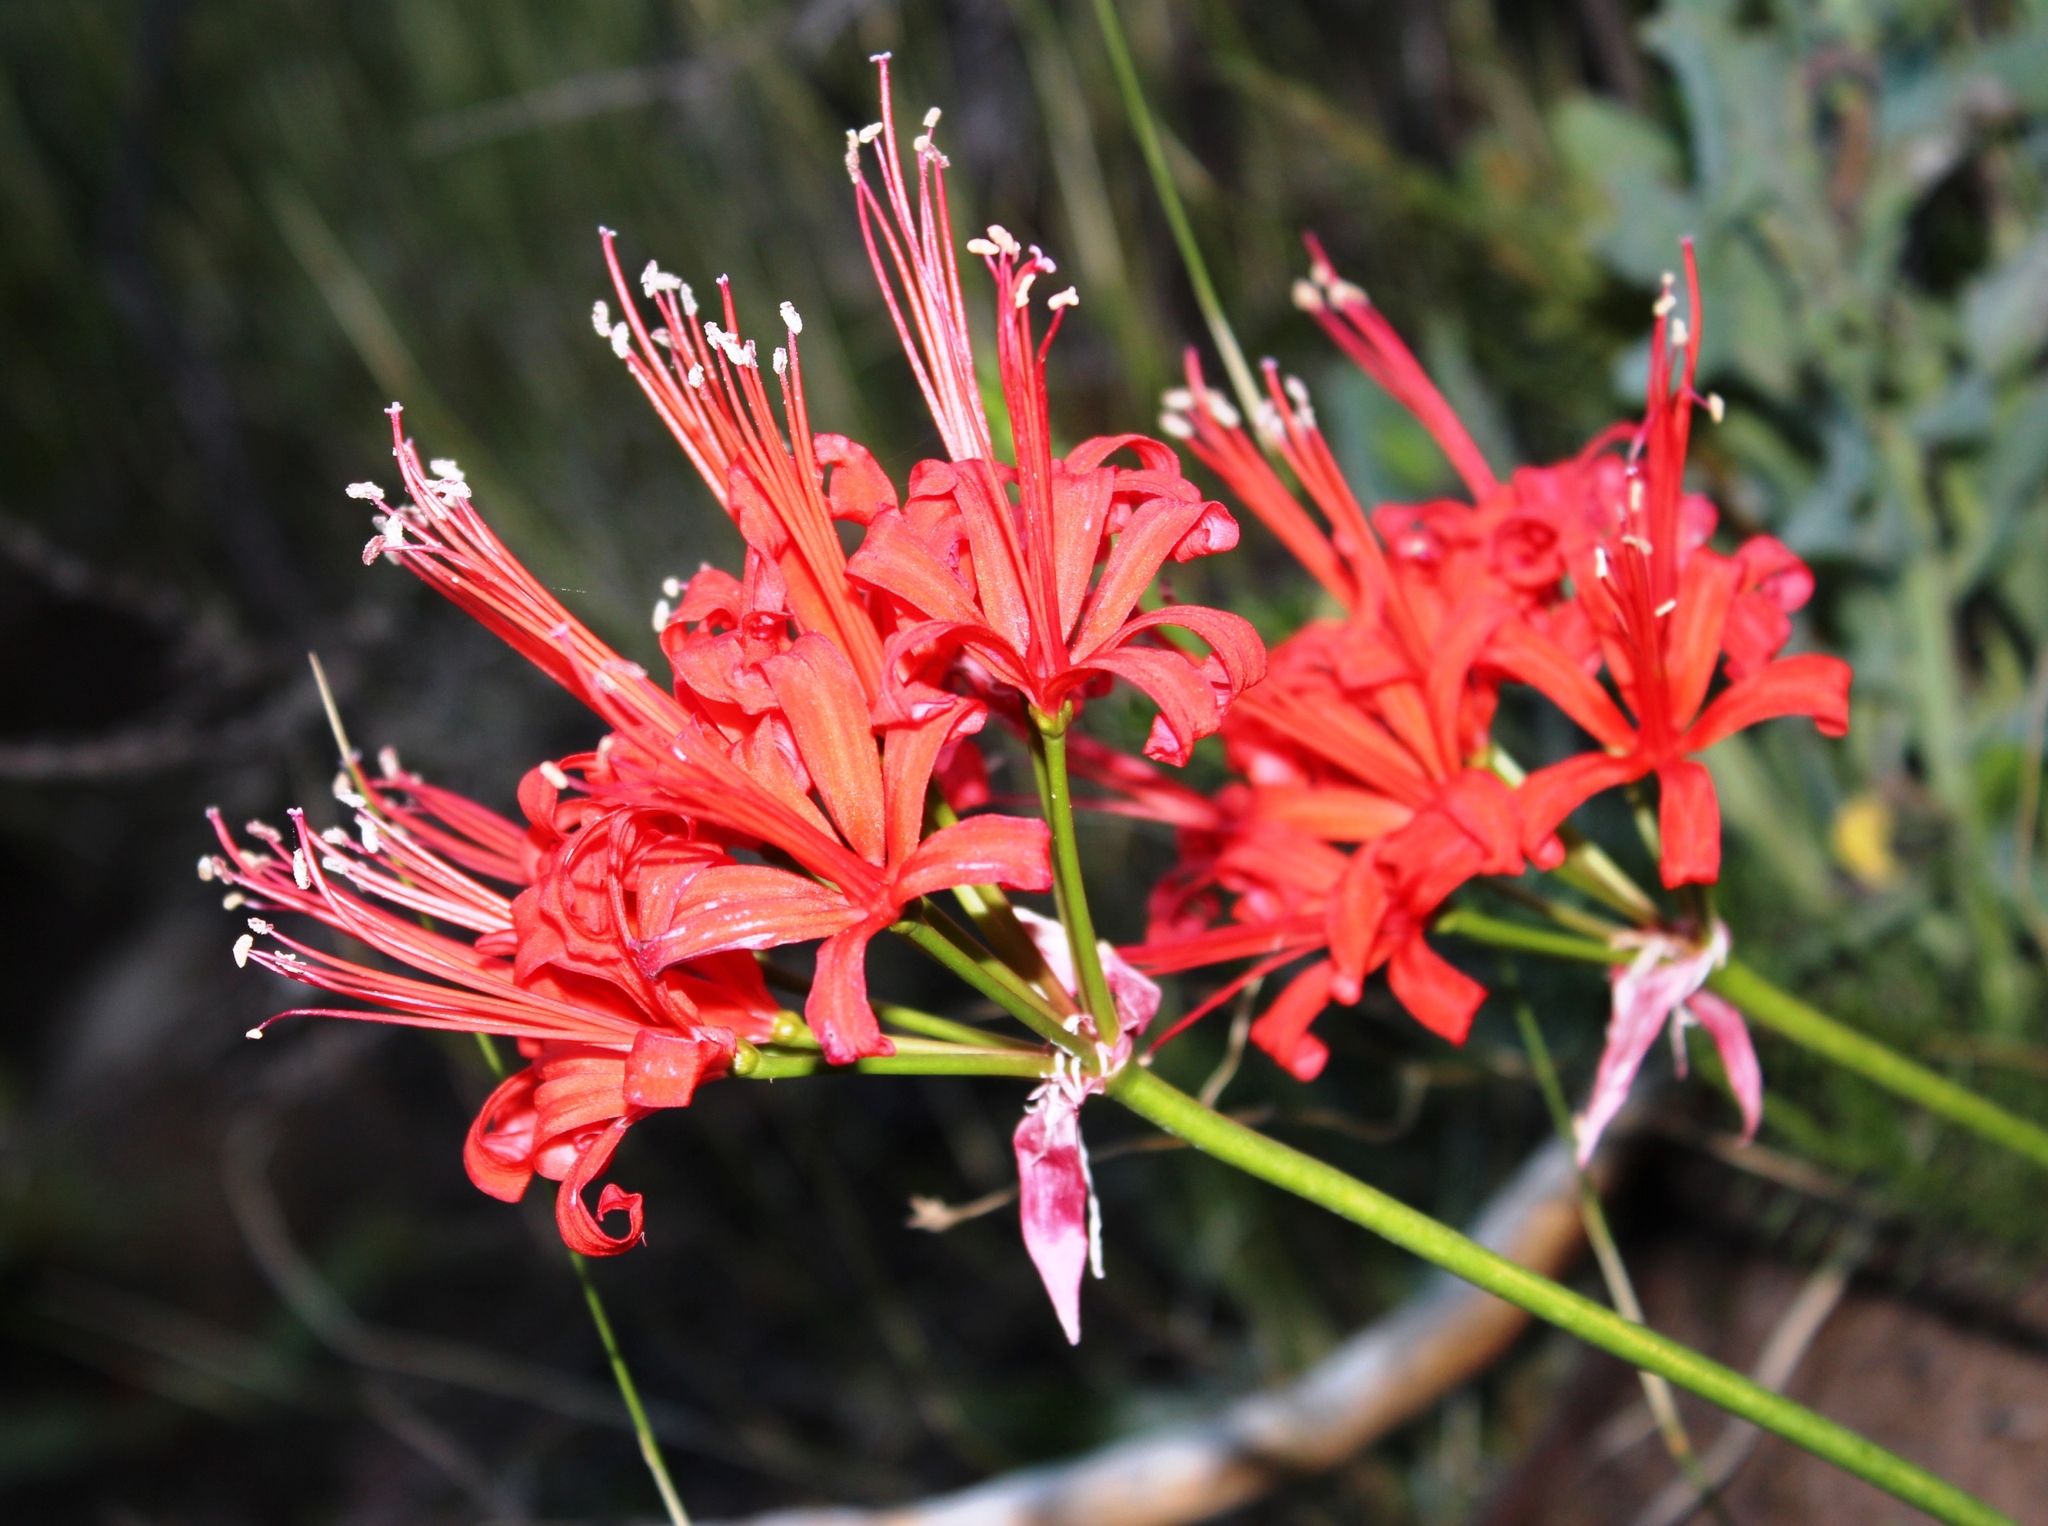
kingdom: Plantae
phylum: Tracheophyta
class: Liliopsida
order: Asparagales
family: Amaryllidaceae
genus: Nerine
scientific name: Nerine sarniensis
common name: Guernsey-lily
